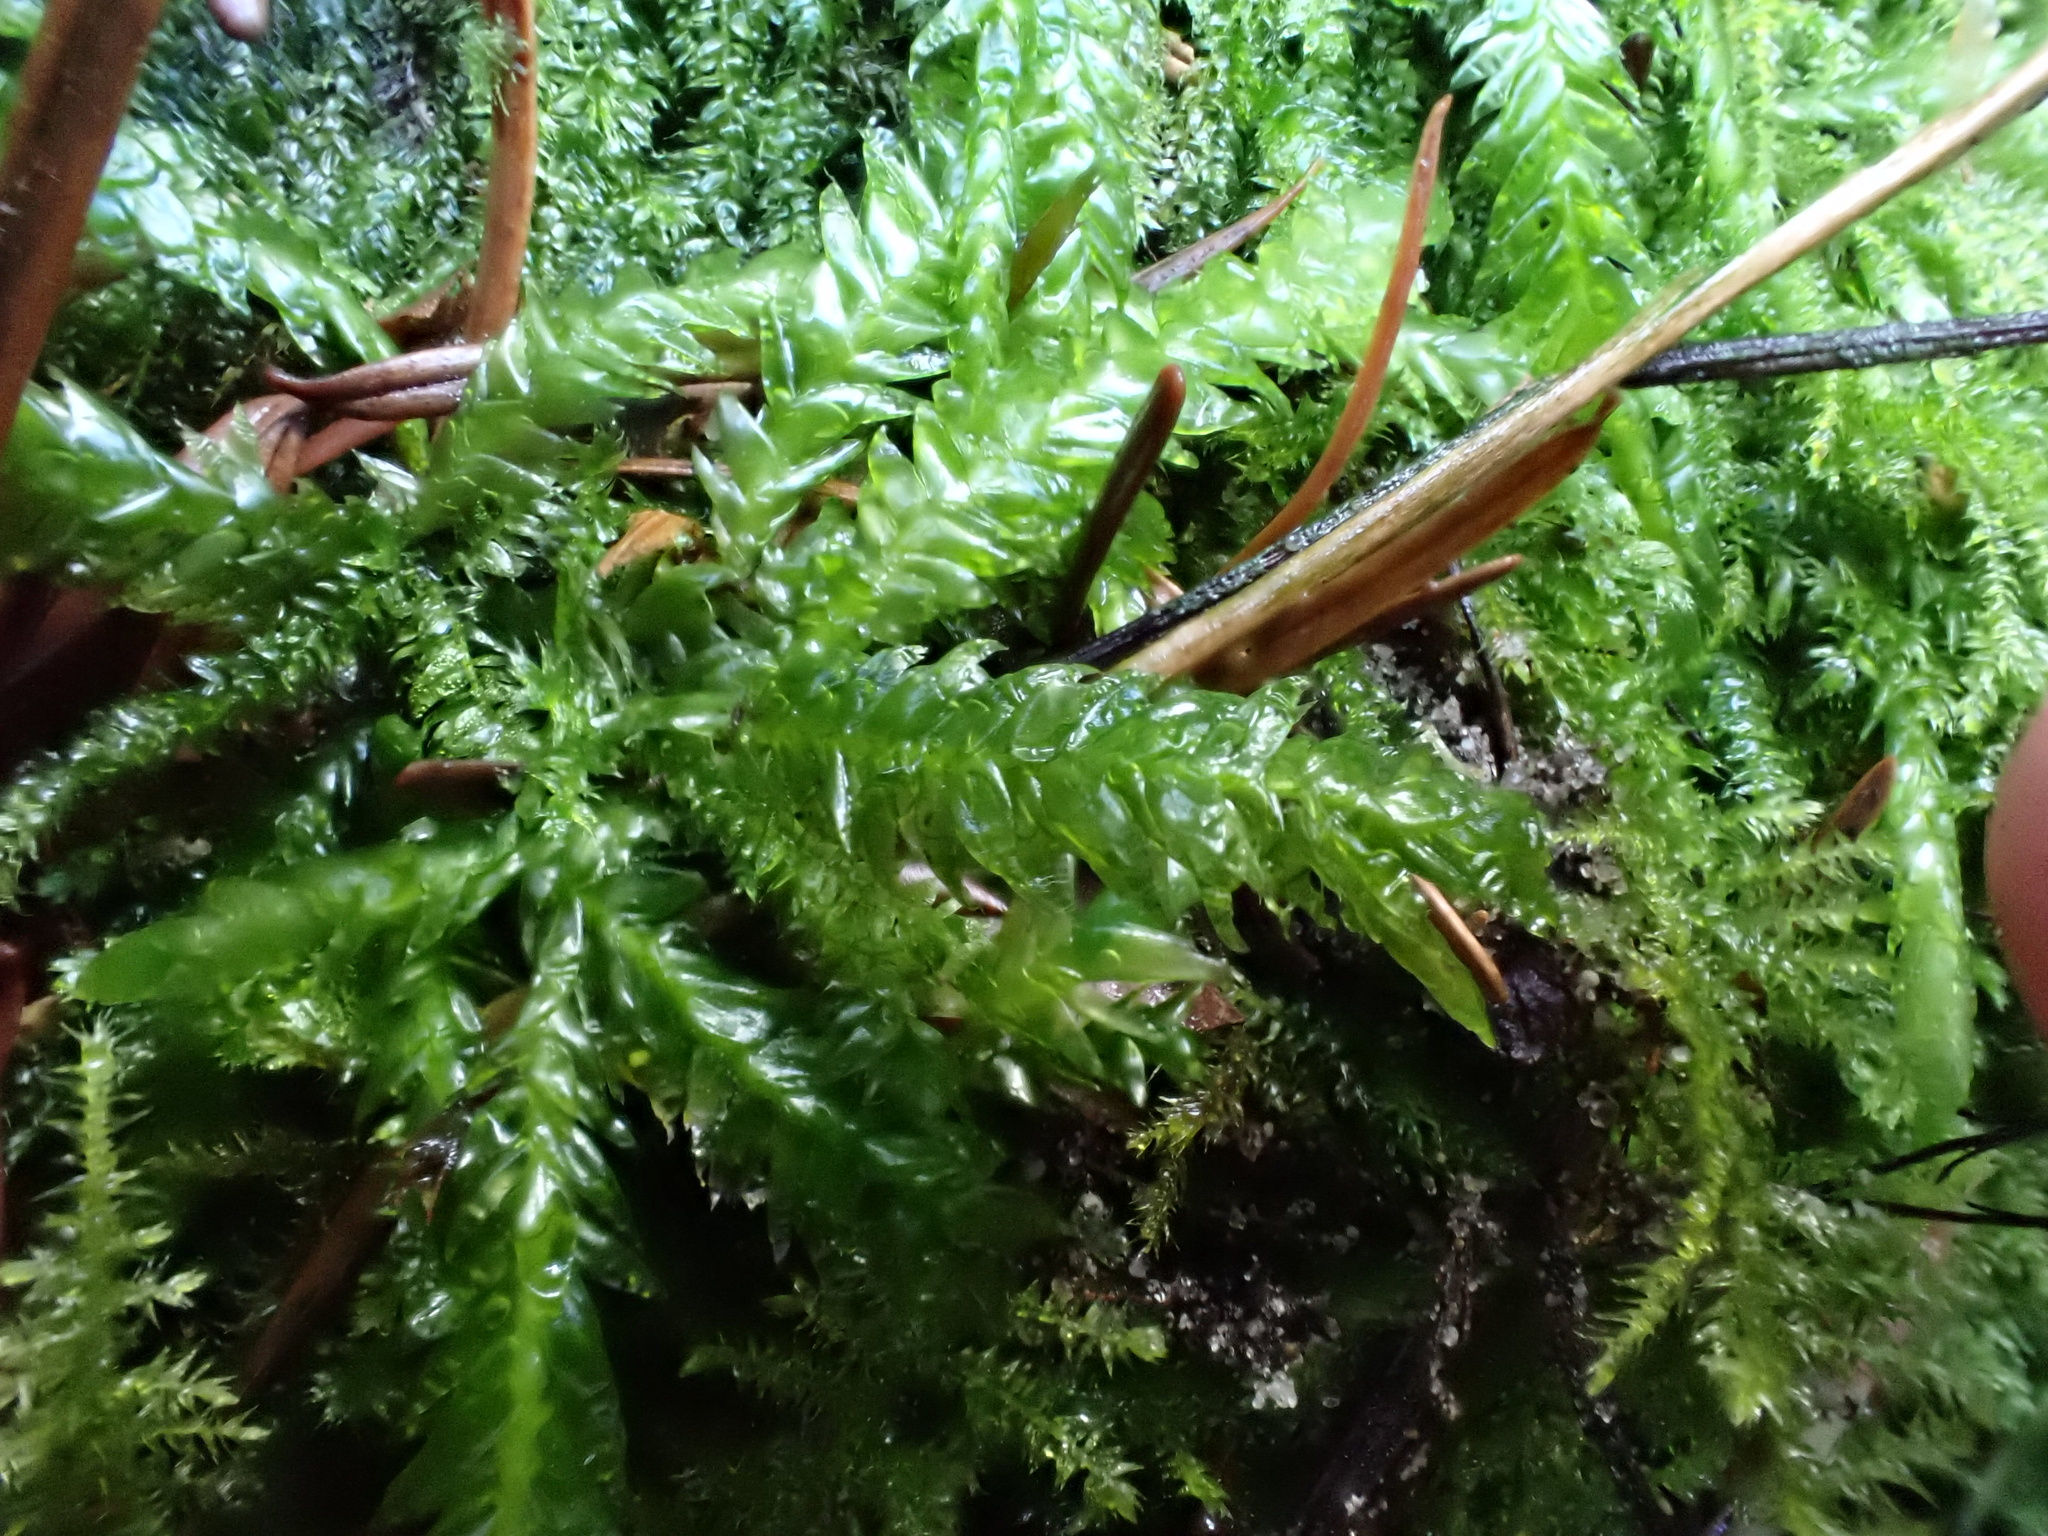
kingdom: Plantae
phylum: Bryophyta
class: Bryopsida
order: Hypnales
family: Plagiotheciaceae
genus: Plagiothecium
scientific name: Plagiothecium undulatum
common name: Waved silk-moss
